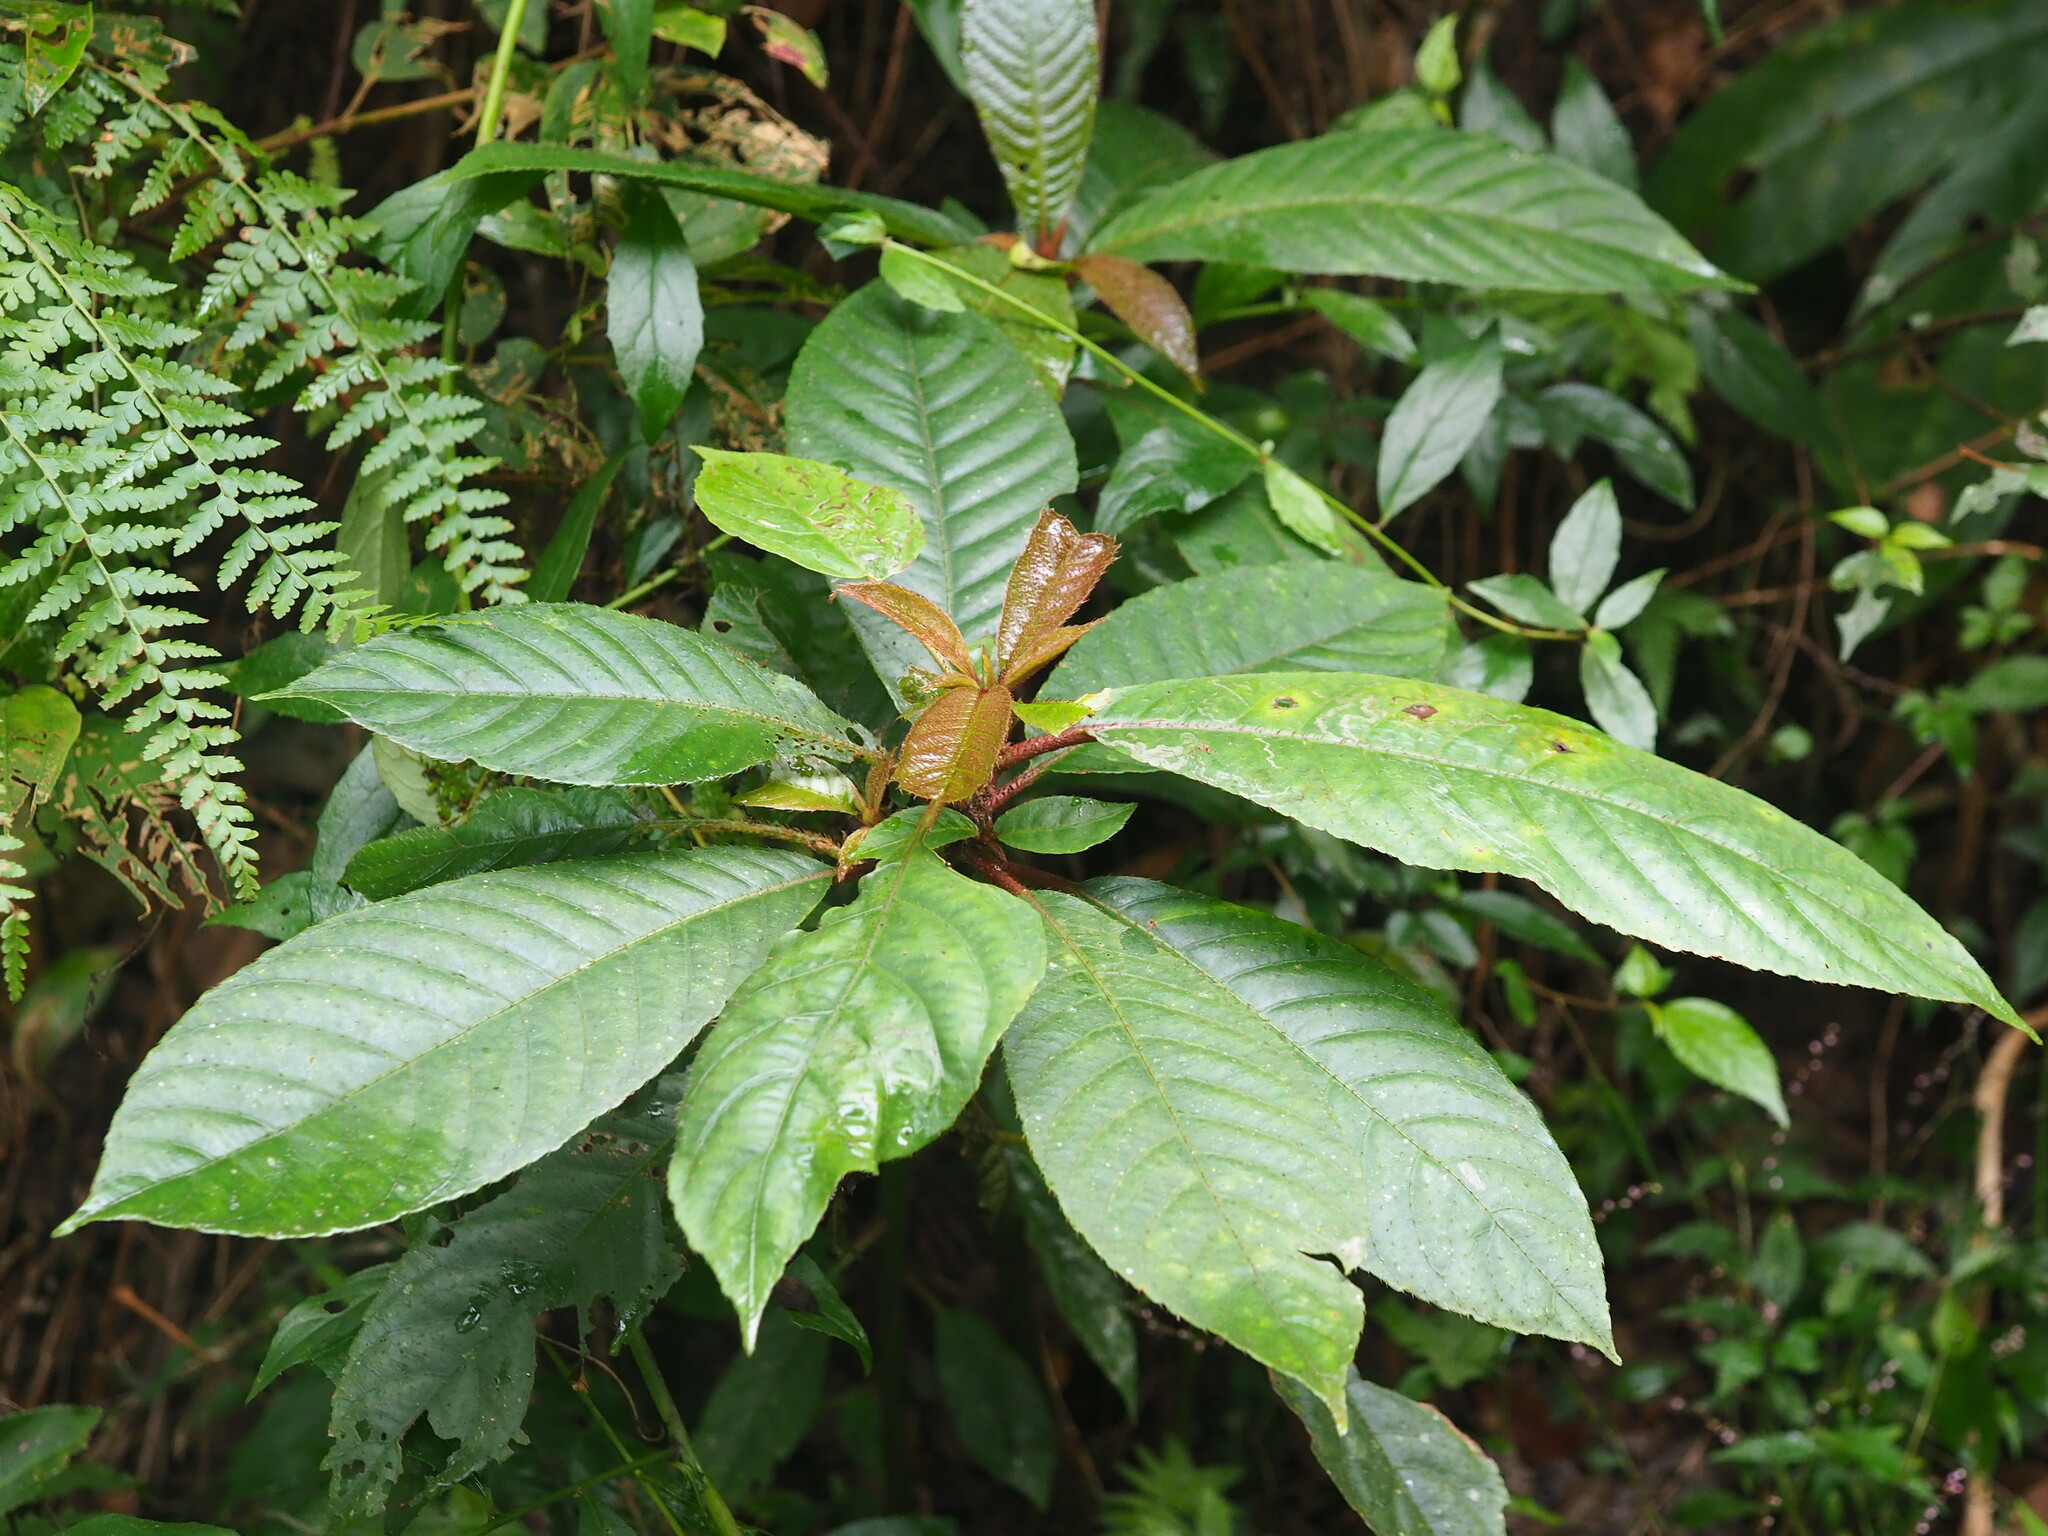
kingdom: Plantae
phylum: Tracheophyta
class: Magnoliopsida
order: Ericales
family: Actinidiaceae
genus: Saurauia
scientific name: Saurauia tristyla
